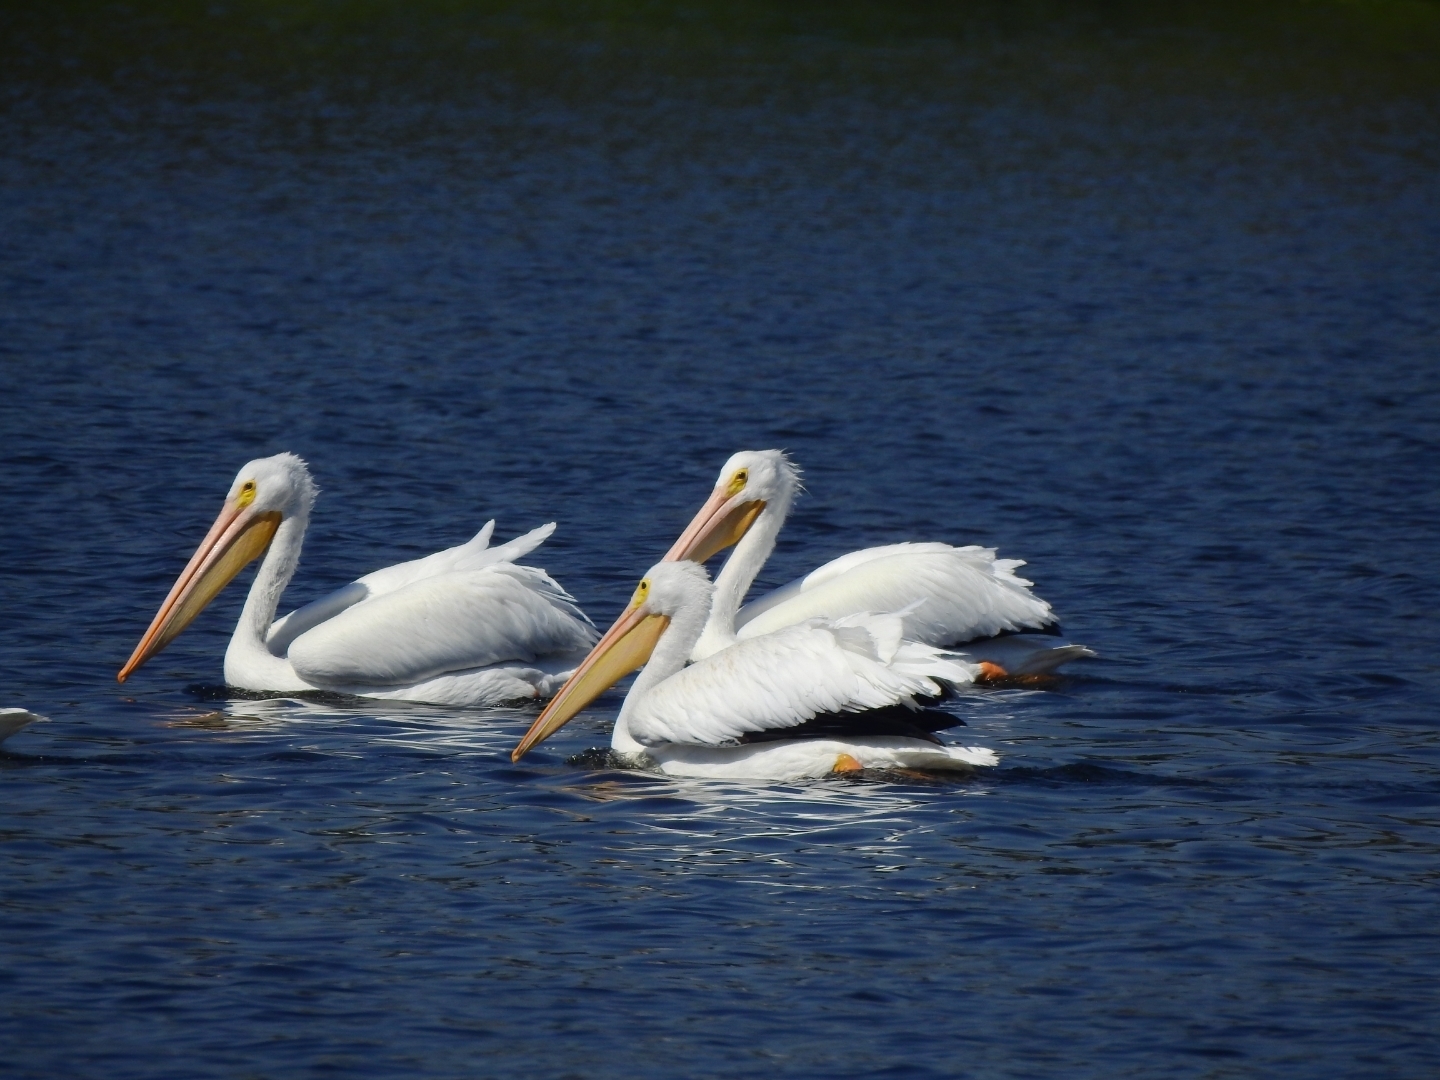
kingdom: Animalia
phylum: Chordata
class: Aves
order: Pelecaniformes
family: Pelecanidae
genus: Pelecanus
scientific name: Pelecanus erythrorhynchos
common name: American white pelican
